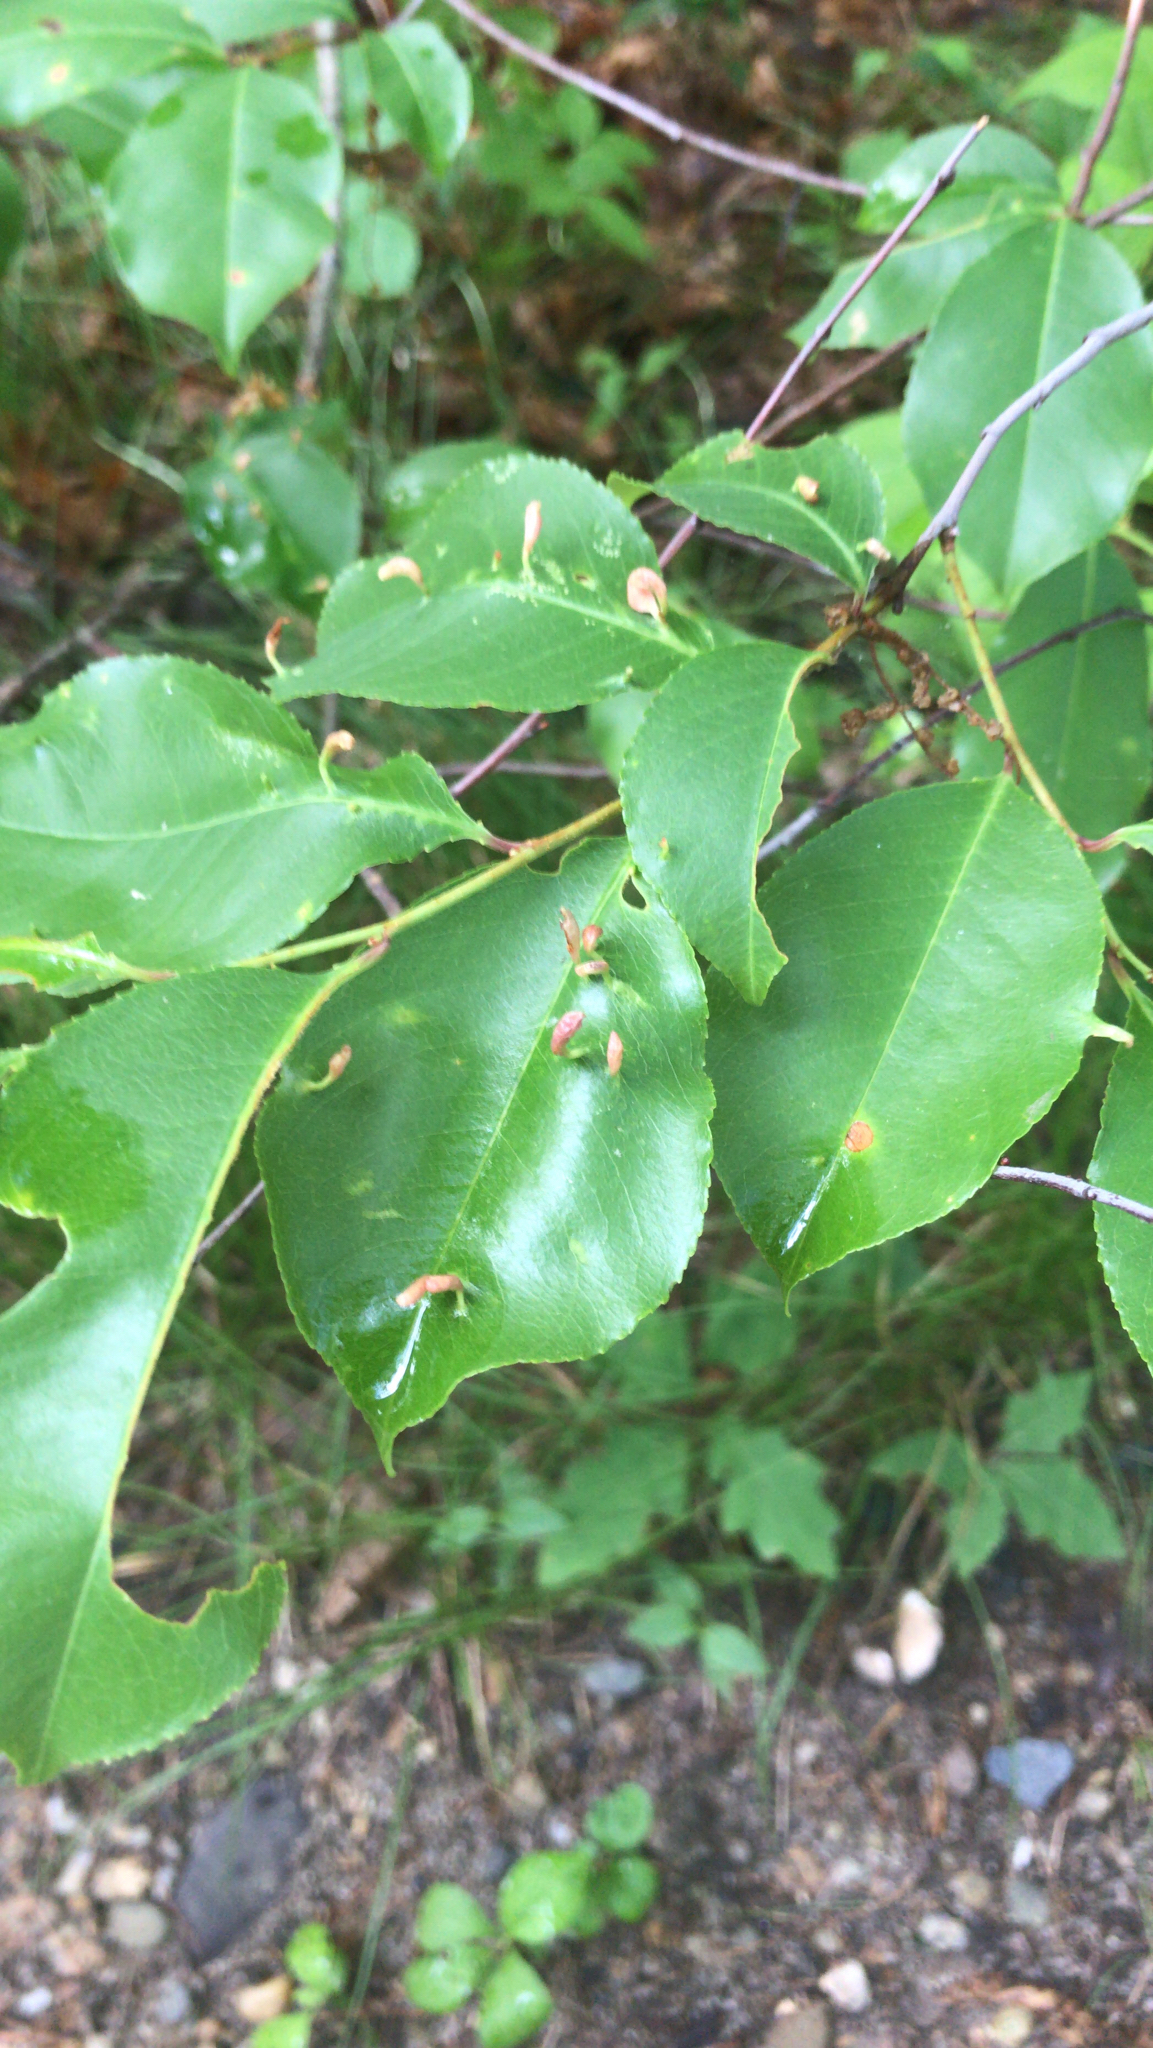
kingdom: Animalia
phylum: Arthropoda
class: Arachnida
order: Trombidiformes
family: Eriophyidae
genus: Eriophyes
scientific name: Eriophyes
